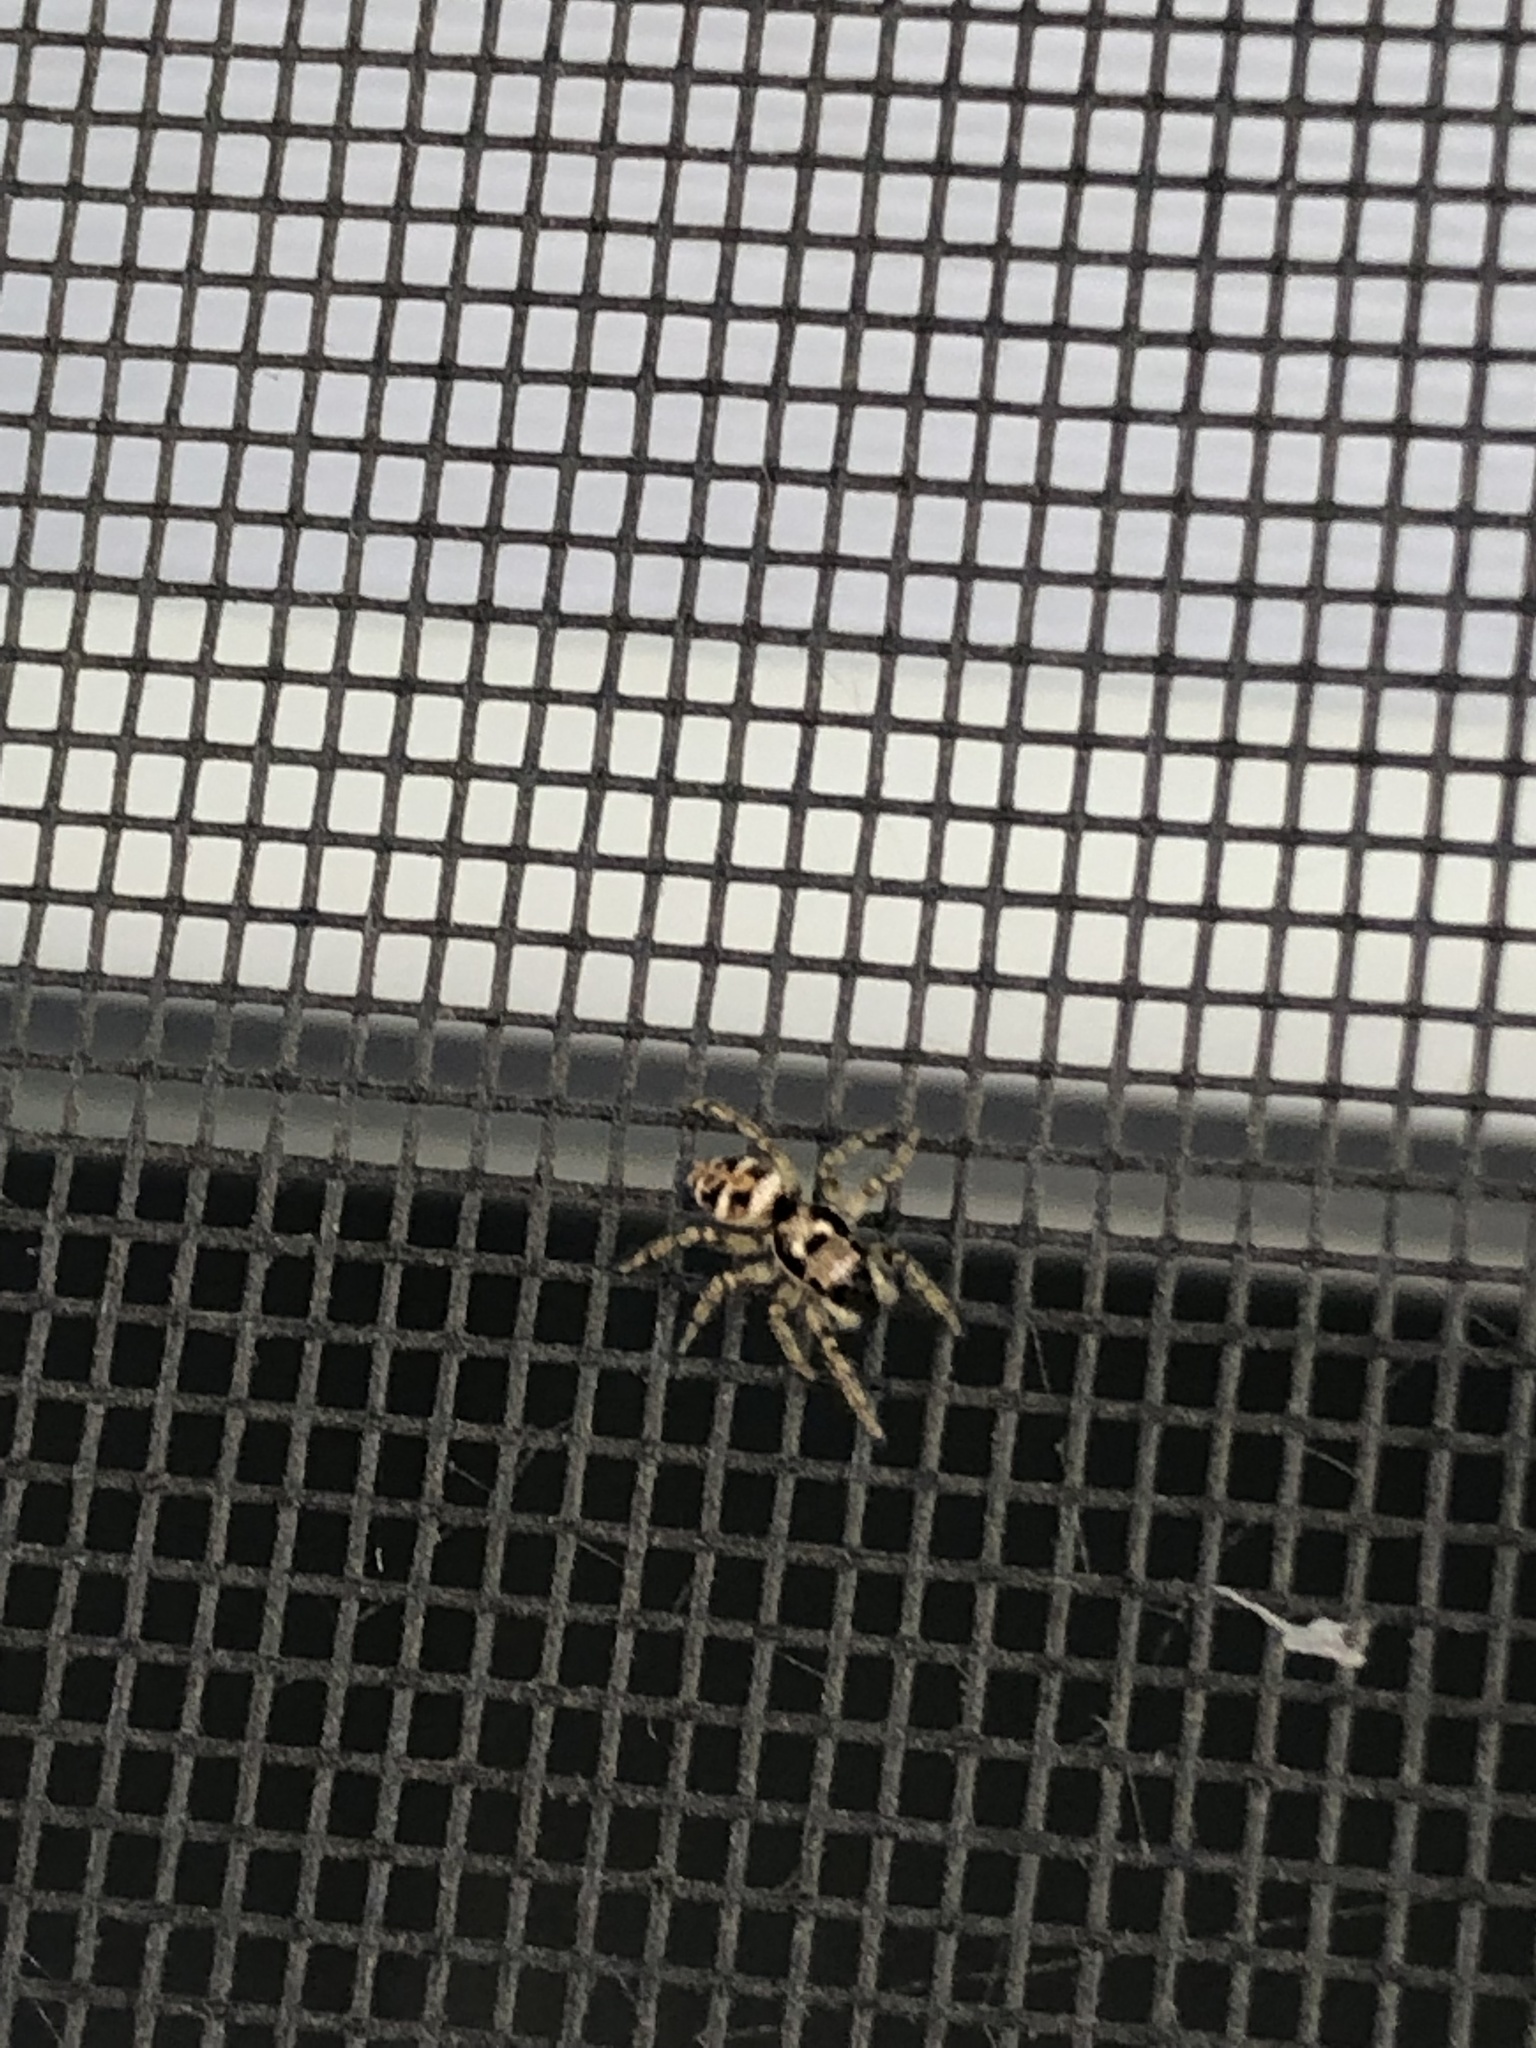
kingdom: Animalia
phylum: Arthropoda
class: Arachnida
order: Araneae
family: Salticidae
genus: Salticus
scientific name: Salticus scenicus
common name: Zebra jumper
